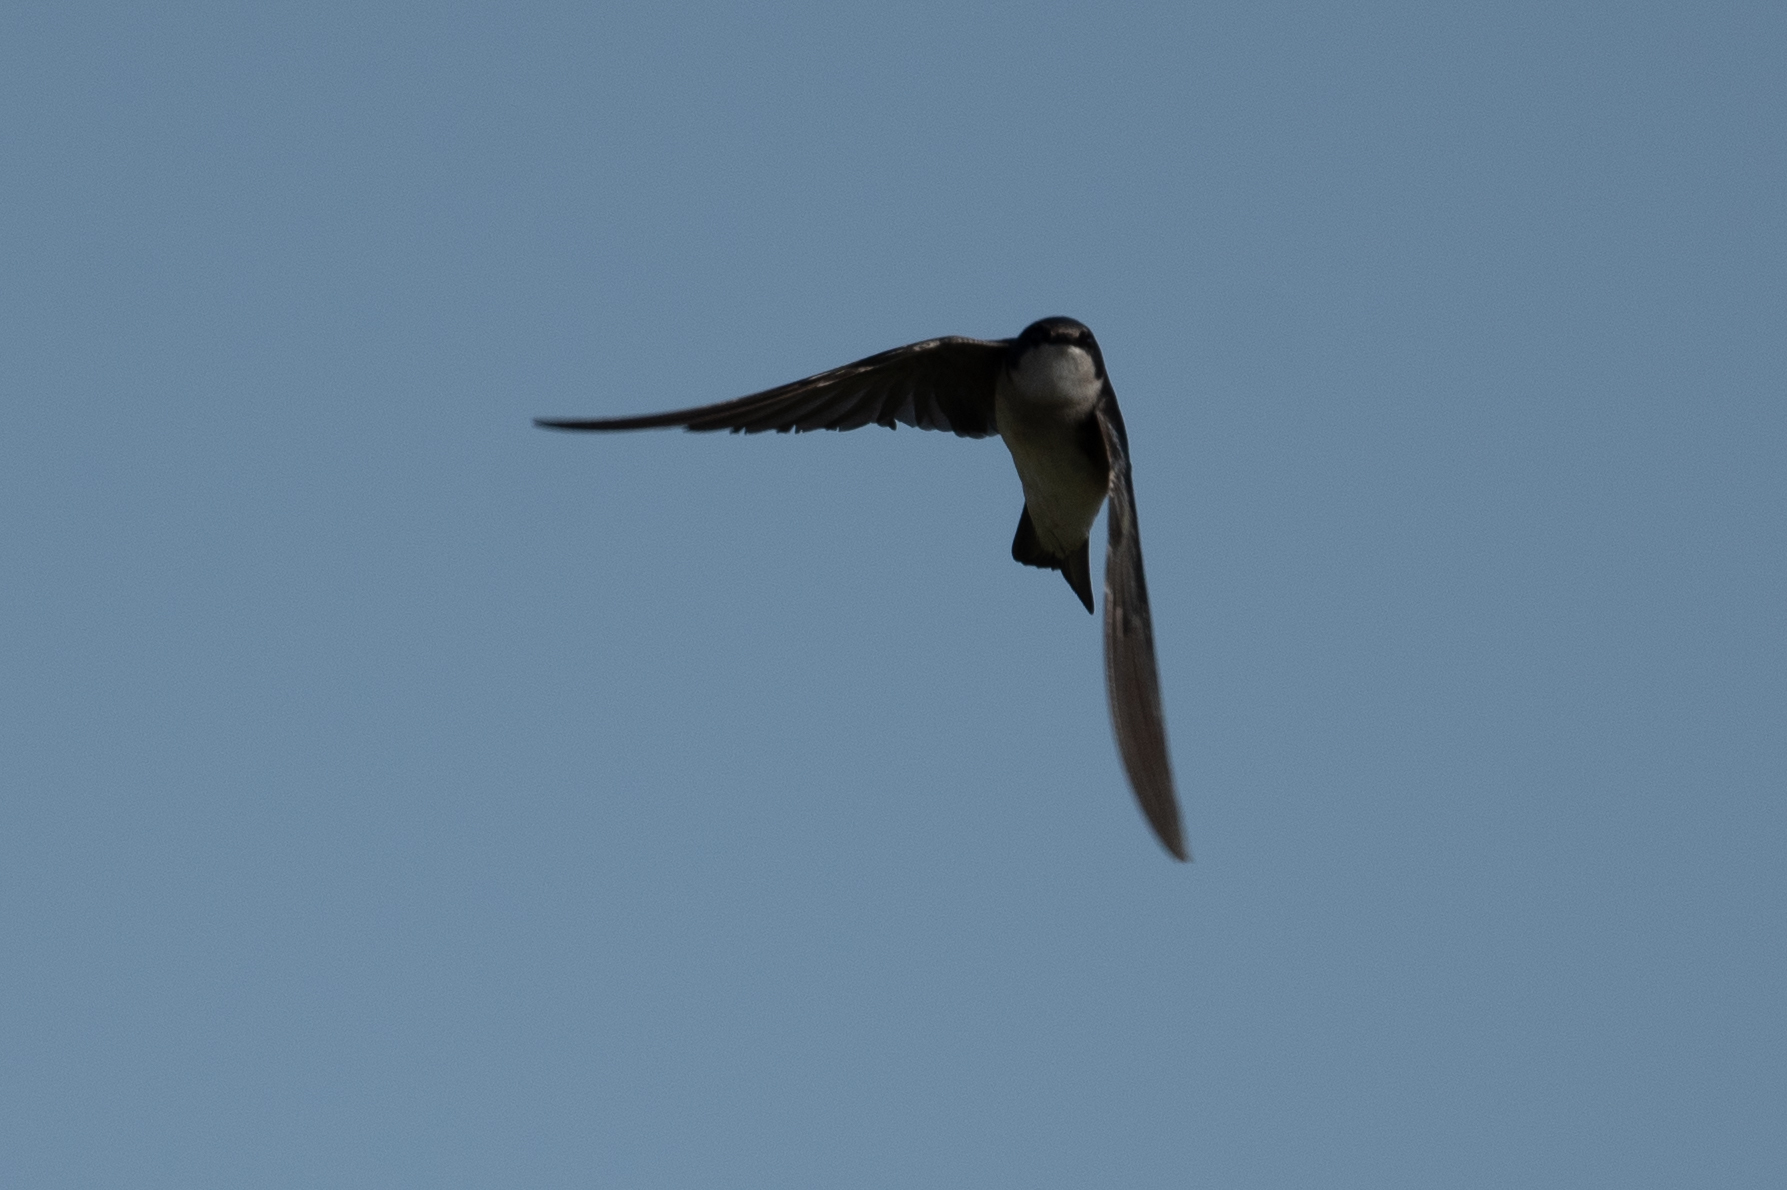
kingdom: Animalia
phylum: Chordata
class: Aves
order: Passeriformes
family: Hirundinidae
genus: Tachycineta
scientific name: Tachycineta bicolor
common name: Tree swallow
